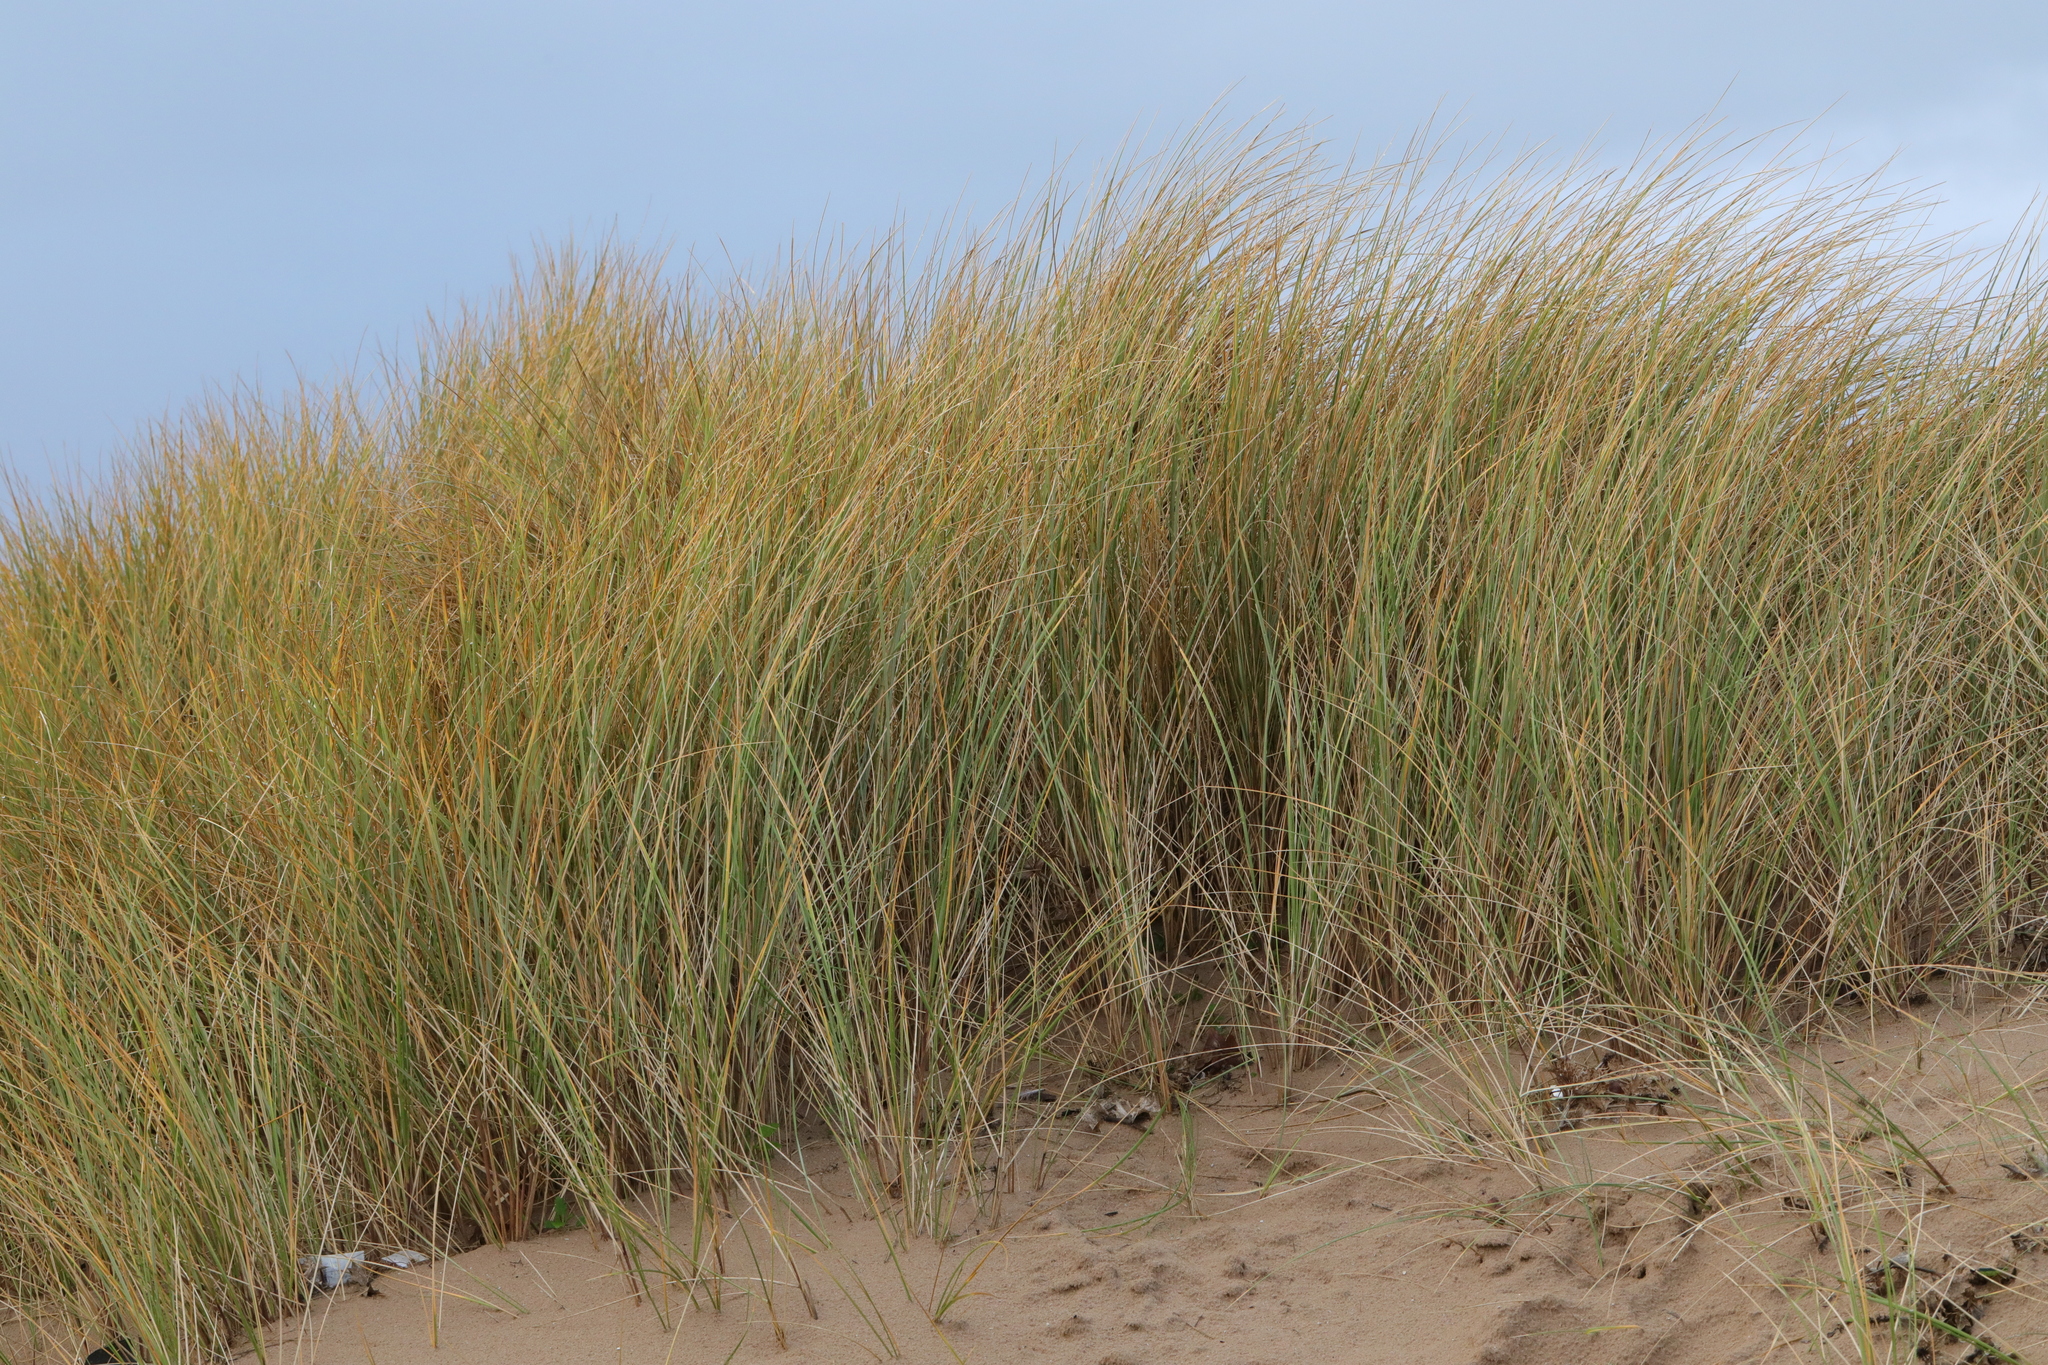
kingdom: Plantae
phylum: Tracheophyta
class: Liliopsida
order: Poales
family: Poaceae
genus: Calamagrostis
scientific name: Calamagrostis arenaria
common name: European beachgrass
